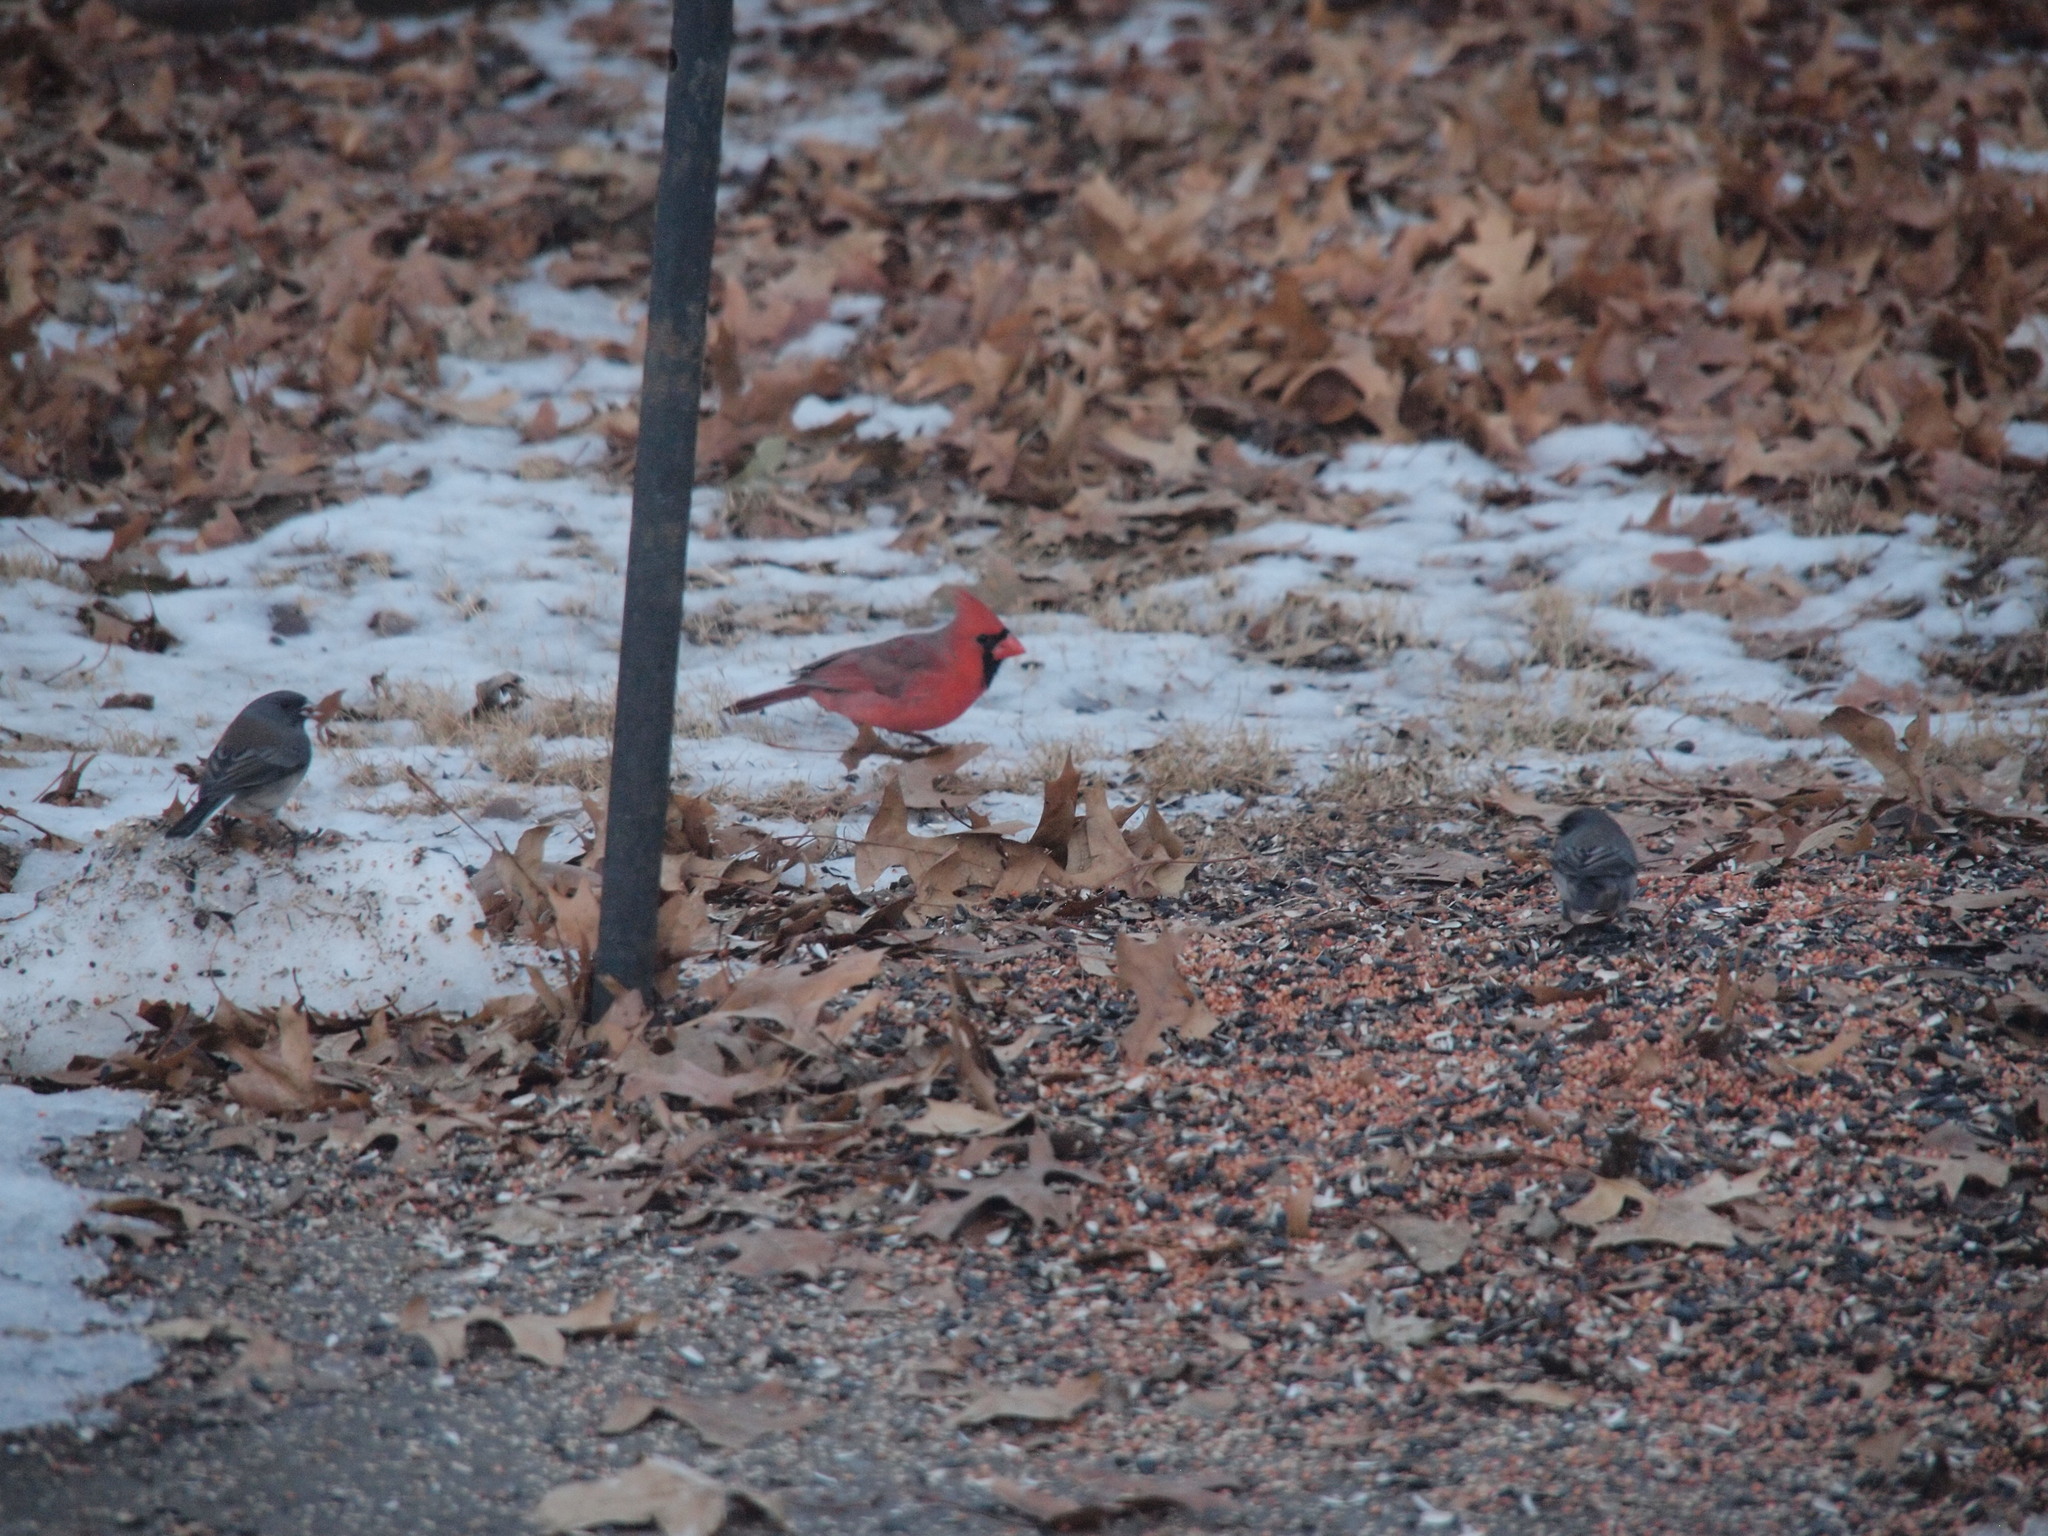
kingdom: Animalia
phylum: Chordata
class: Aves
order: Passeriformes
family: Cardinalidae
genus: Cardinalis
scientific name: Cardinalis cardinalis
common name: Northern cardinal
